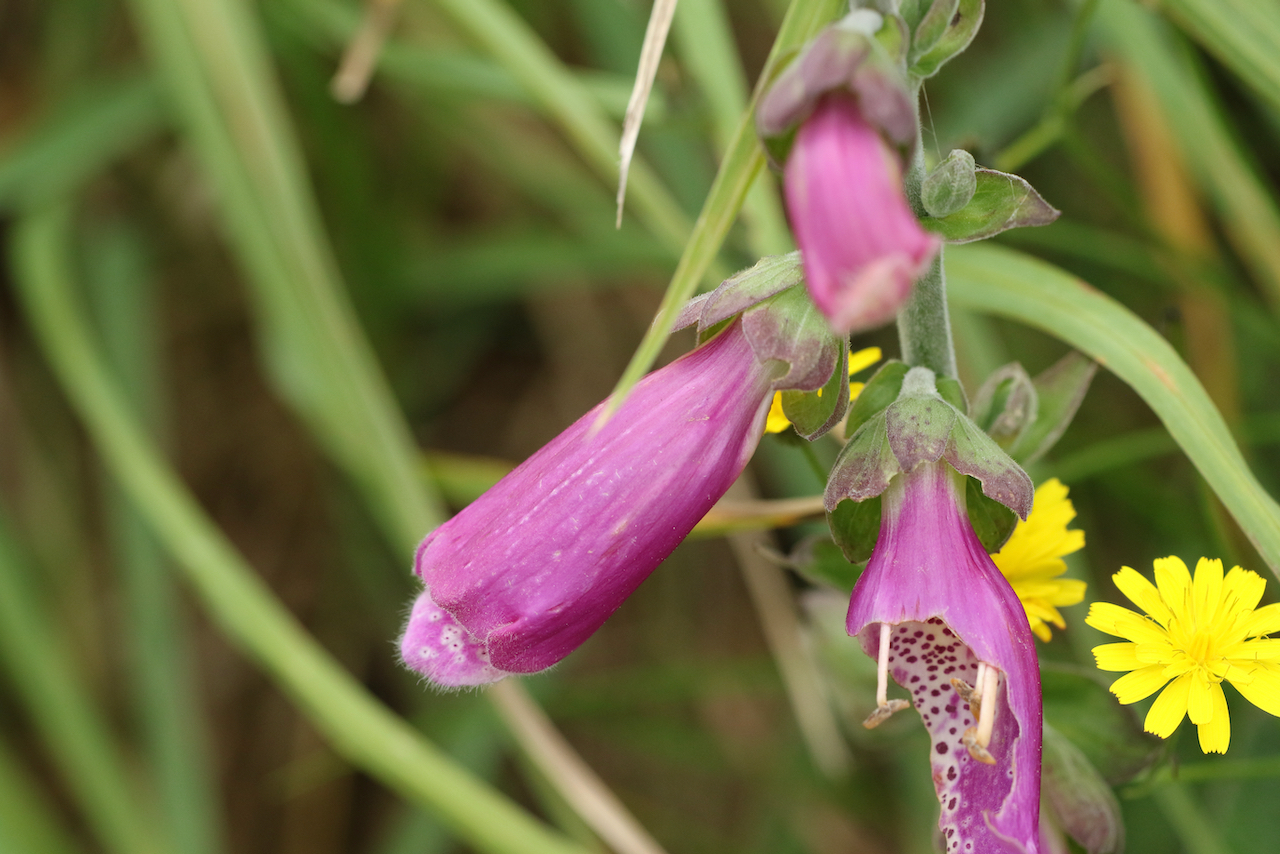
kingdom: Plantae
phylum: Tracheophyta
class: Magnoliopsida
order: Lamiales
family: Plantaginaceae
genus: Digitalis
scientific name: Digitalis purpurea
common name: Foxglove
